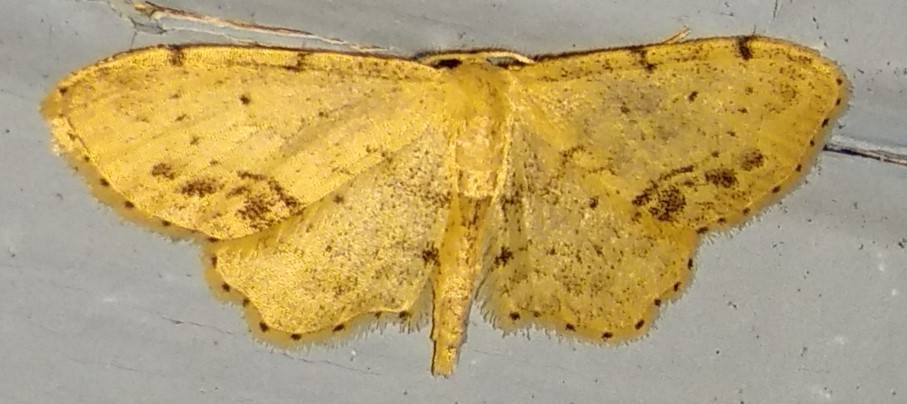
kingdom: Animalia
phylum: Arthropoda
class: Insecta
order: Lepidoptera
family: Geometridae
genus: Idaea
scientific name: Idaea dimidiata
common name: Single-dotted wave
